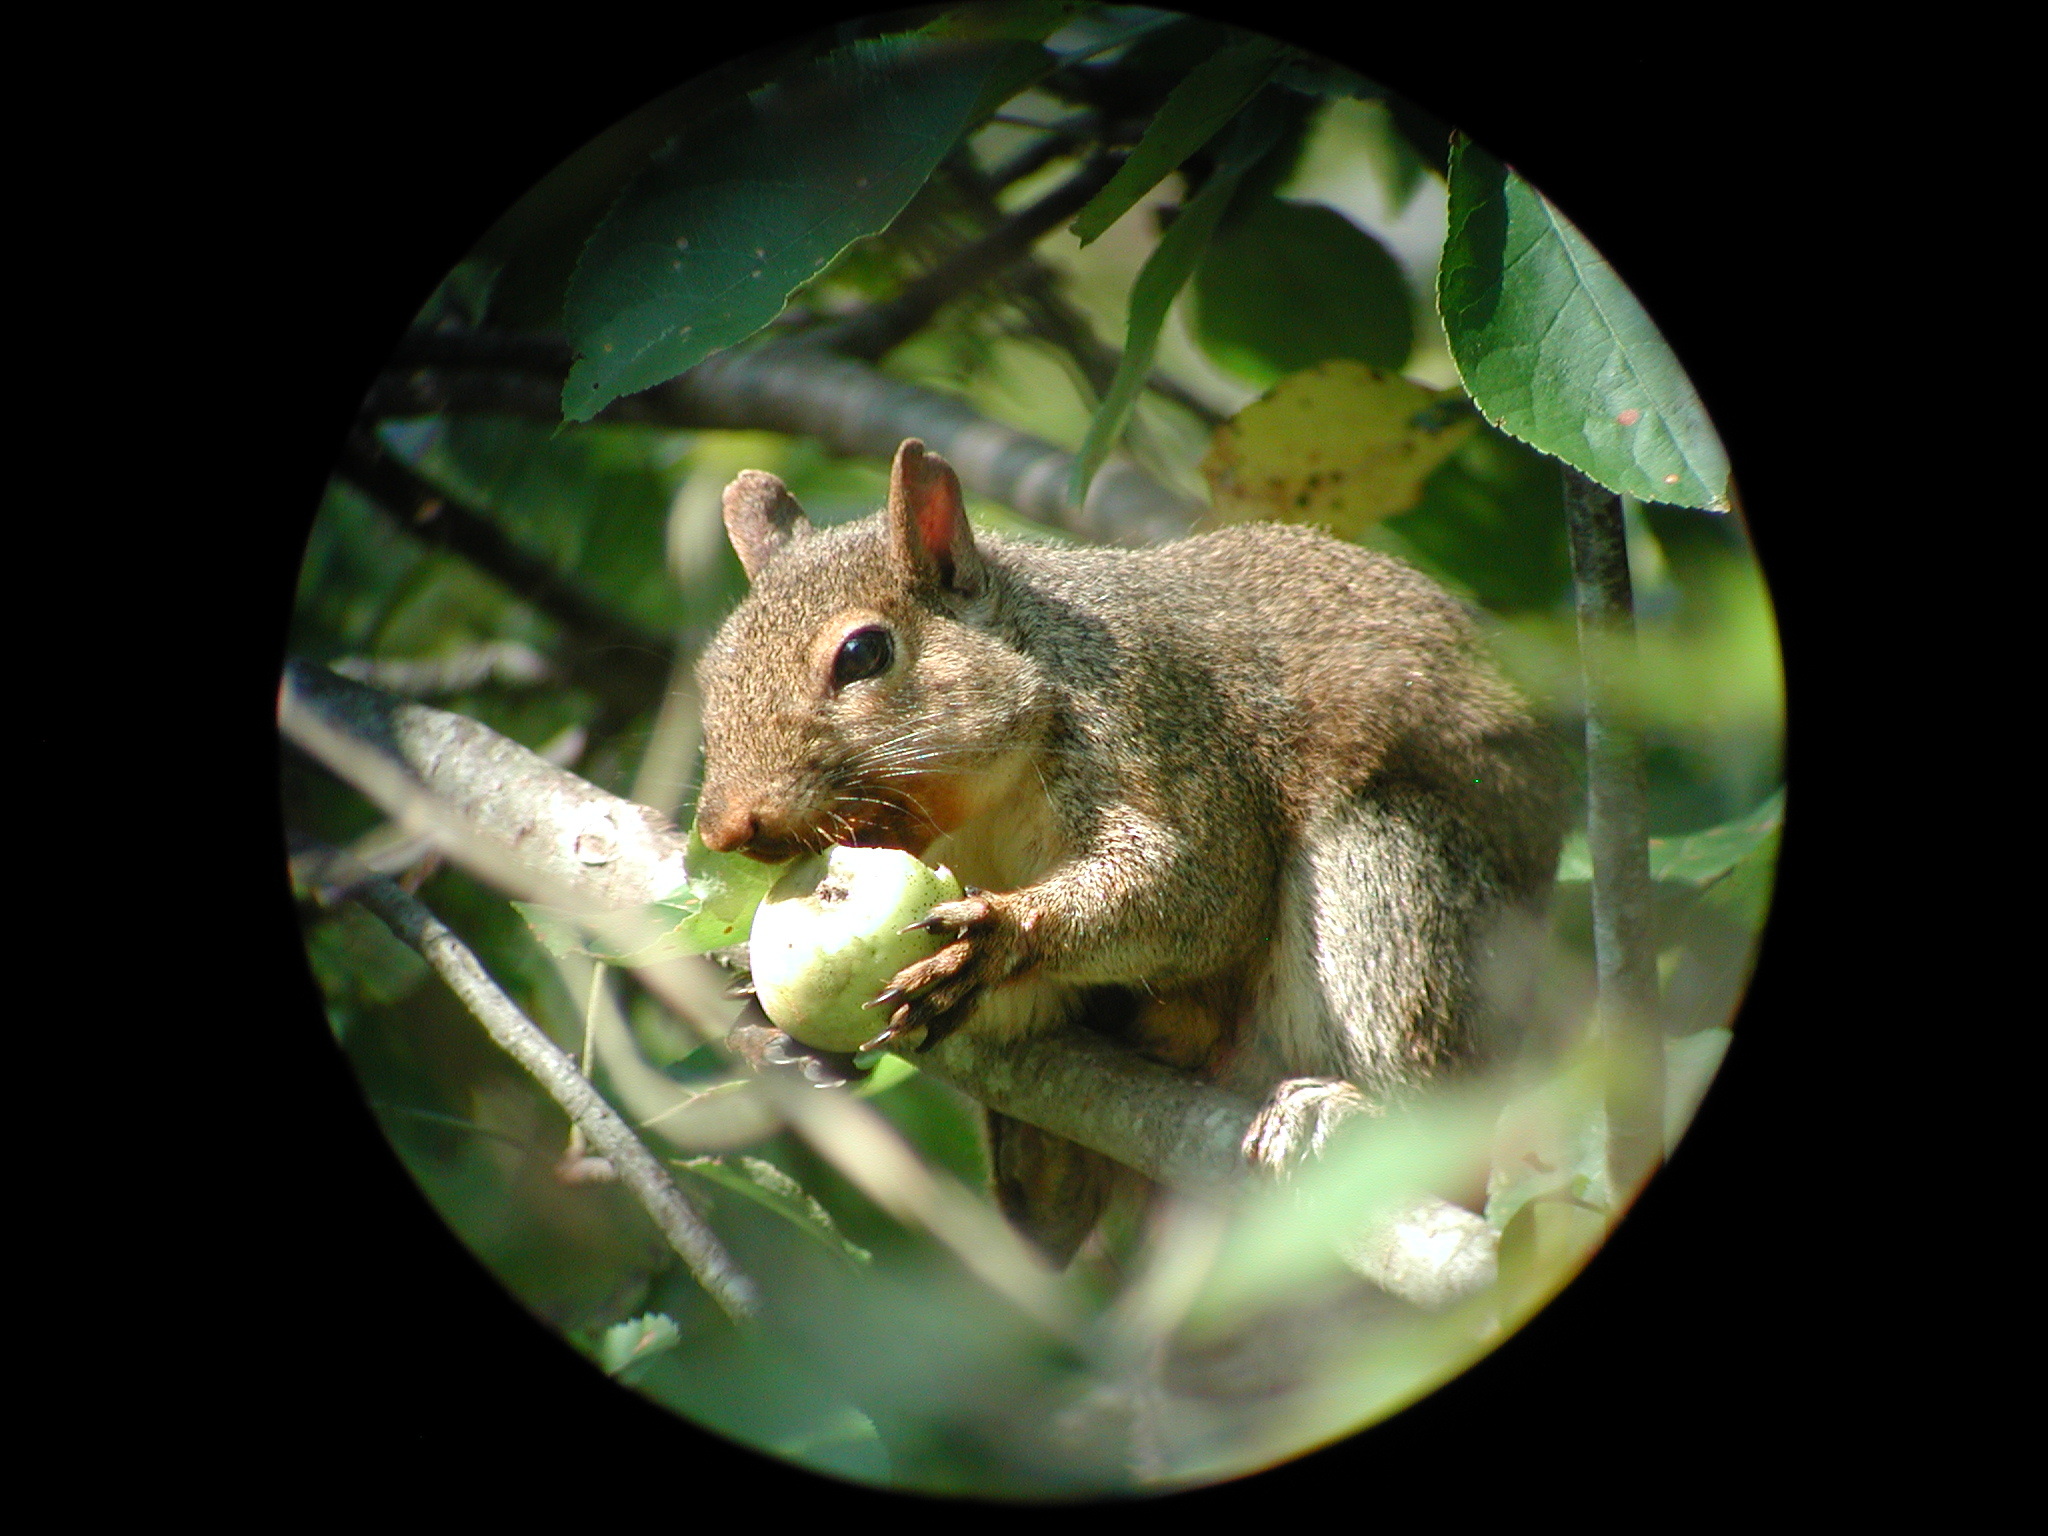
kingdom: Animalia
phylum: Chordata
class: Mammalia
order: Rodentia
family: Sciuridae
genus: Sciurus
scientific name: Sciurus carolinensis
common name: Eastern gray squirrel
